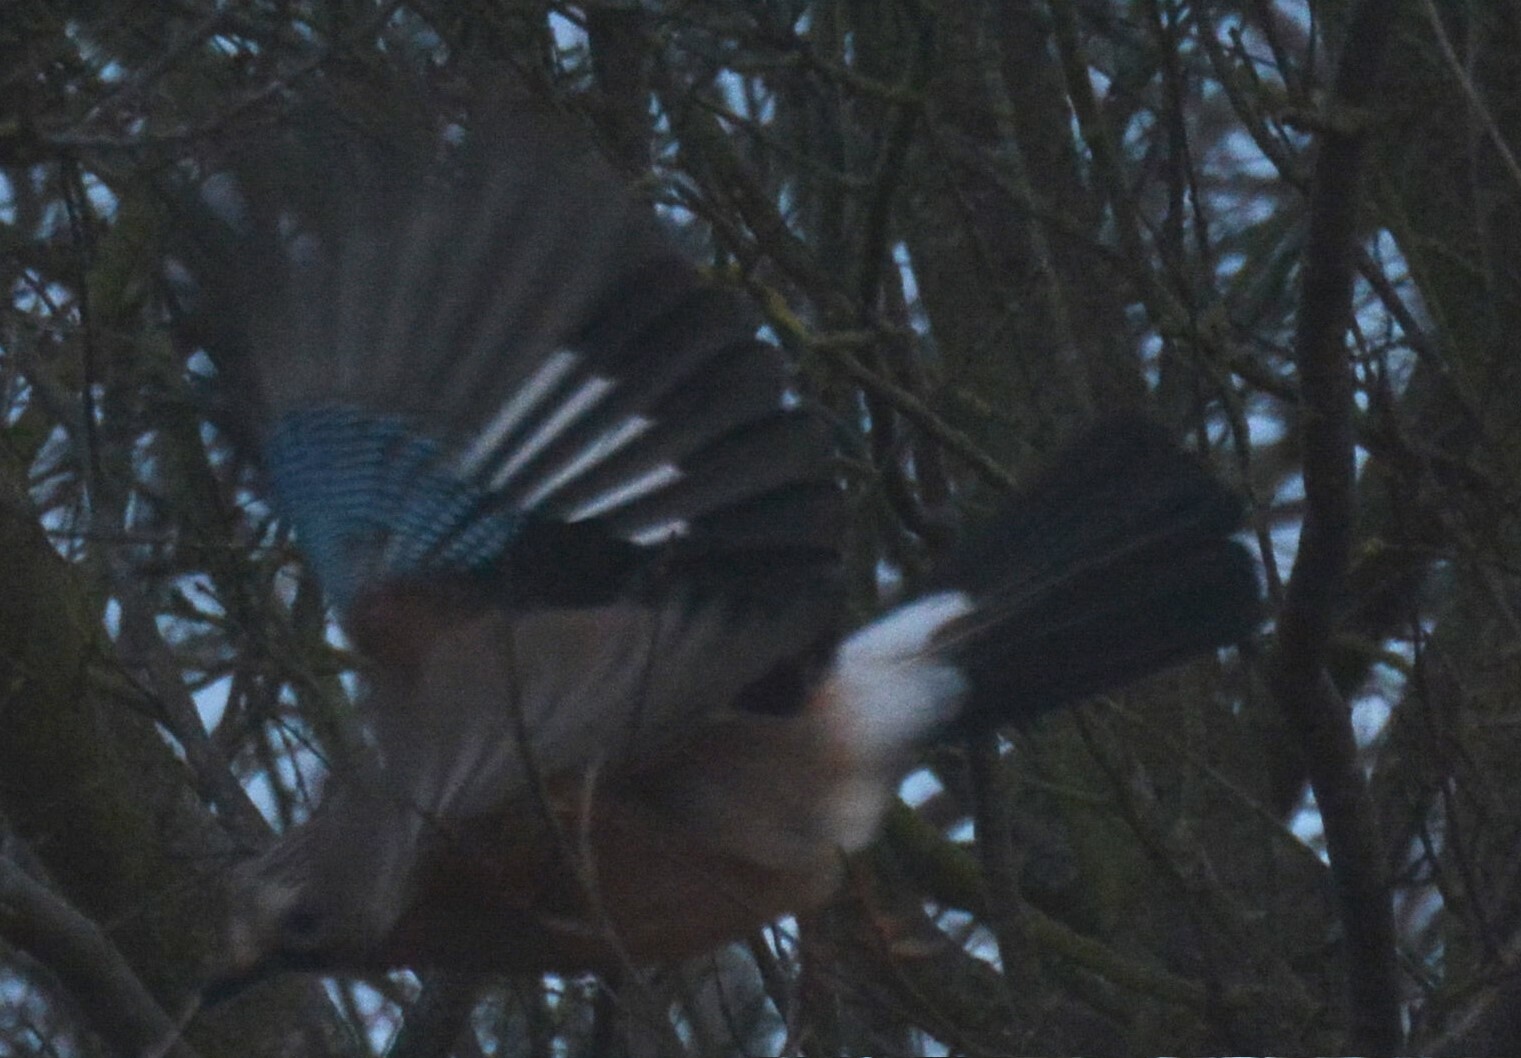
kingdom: Animalia
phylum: Chordata
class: Aves
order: Passeriformes
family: Corvidae
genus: Garrulus
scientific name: Garrulus glandarius
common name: Eurasian jay
